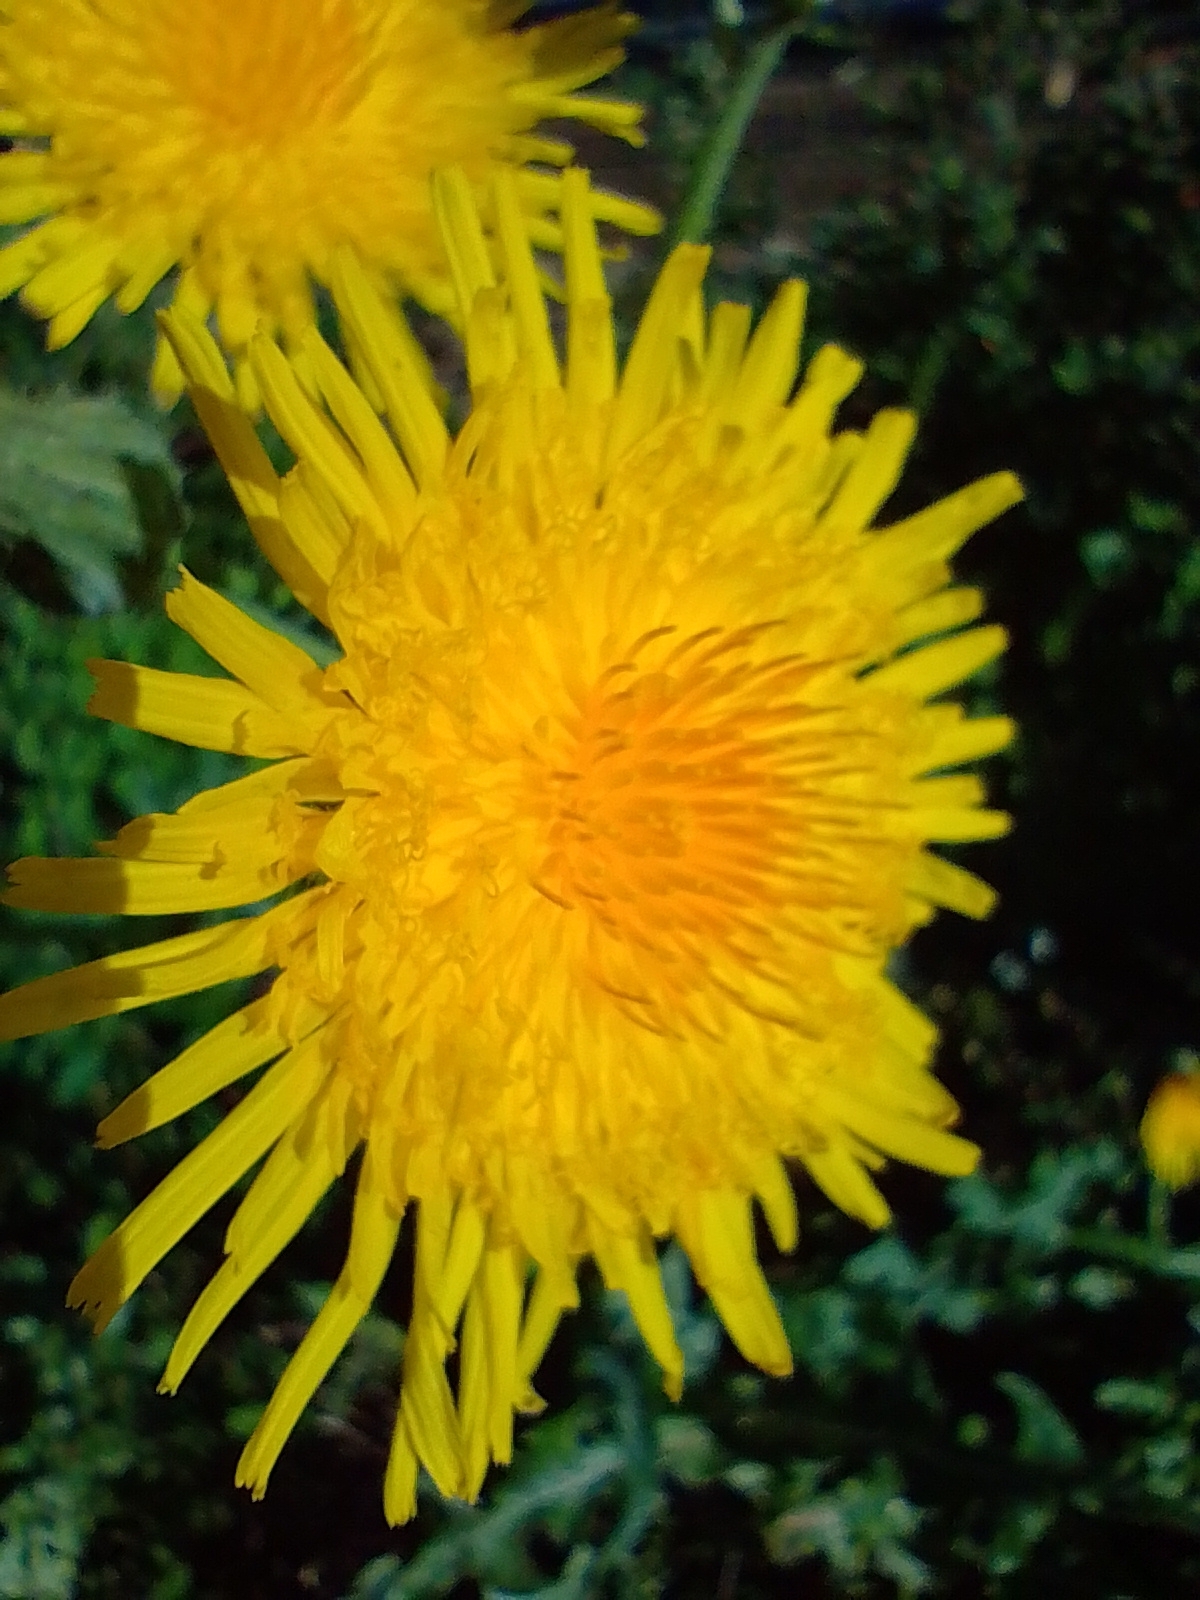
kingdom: Plantae
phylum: Tracheophyta
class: Magnoliopsida
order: Asterales
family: Asteraceae
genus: Sonchus
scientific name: Sonchus arvensis
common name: Perennial sow-thistle
